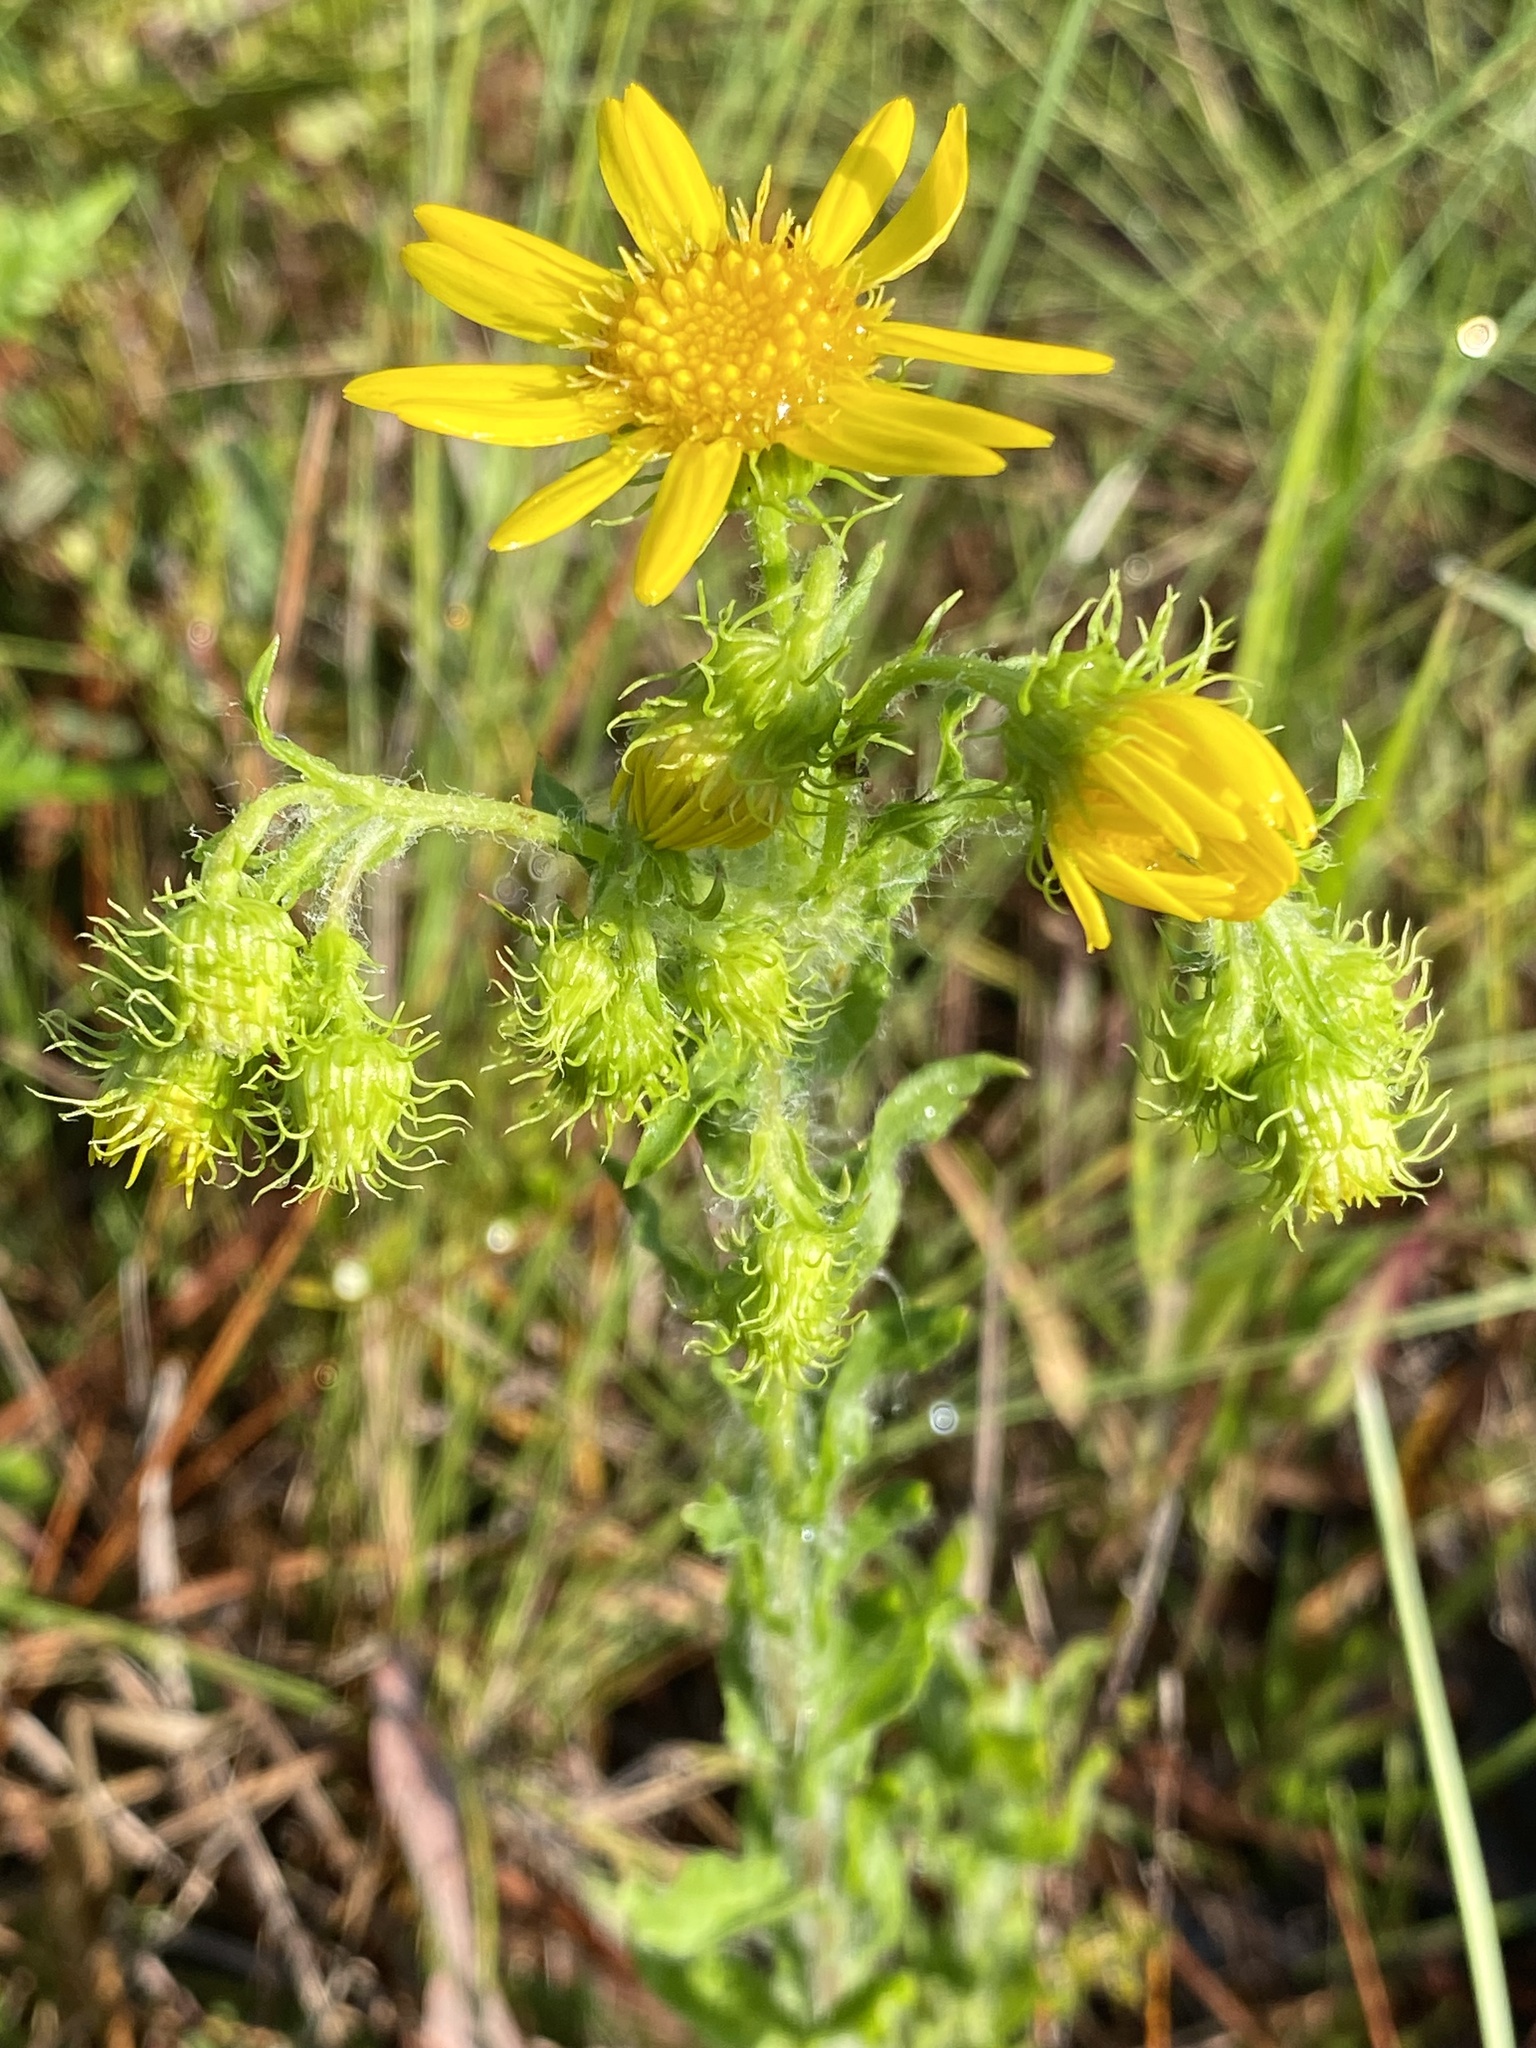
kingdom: Plantae
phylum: Tracheophyta
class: Magnoliopsida
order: Asterales
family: Asteraceae
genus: Chrysopsis
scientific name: Chrysopsis subulata
